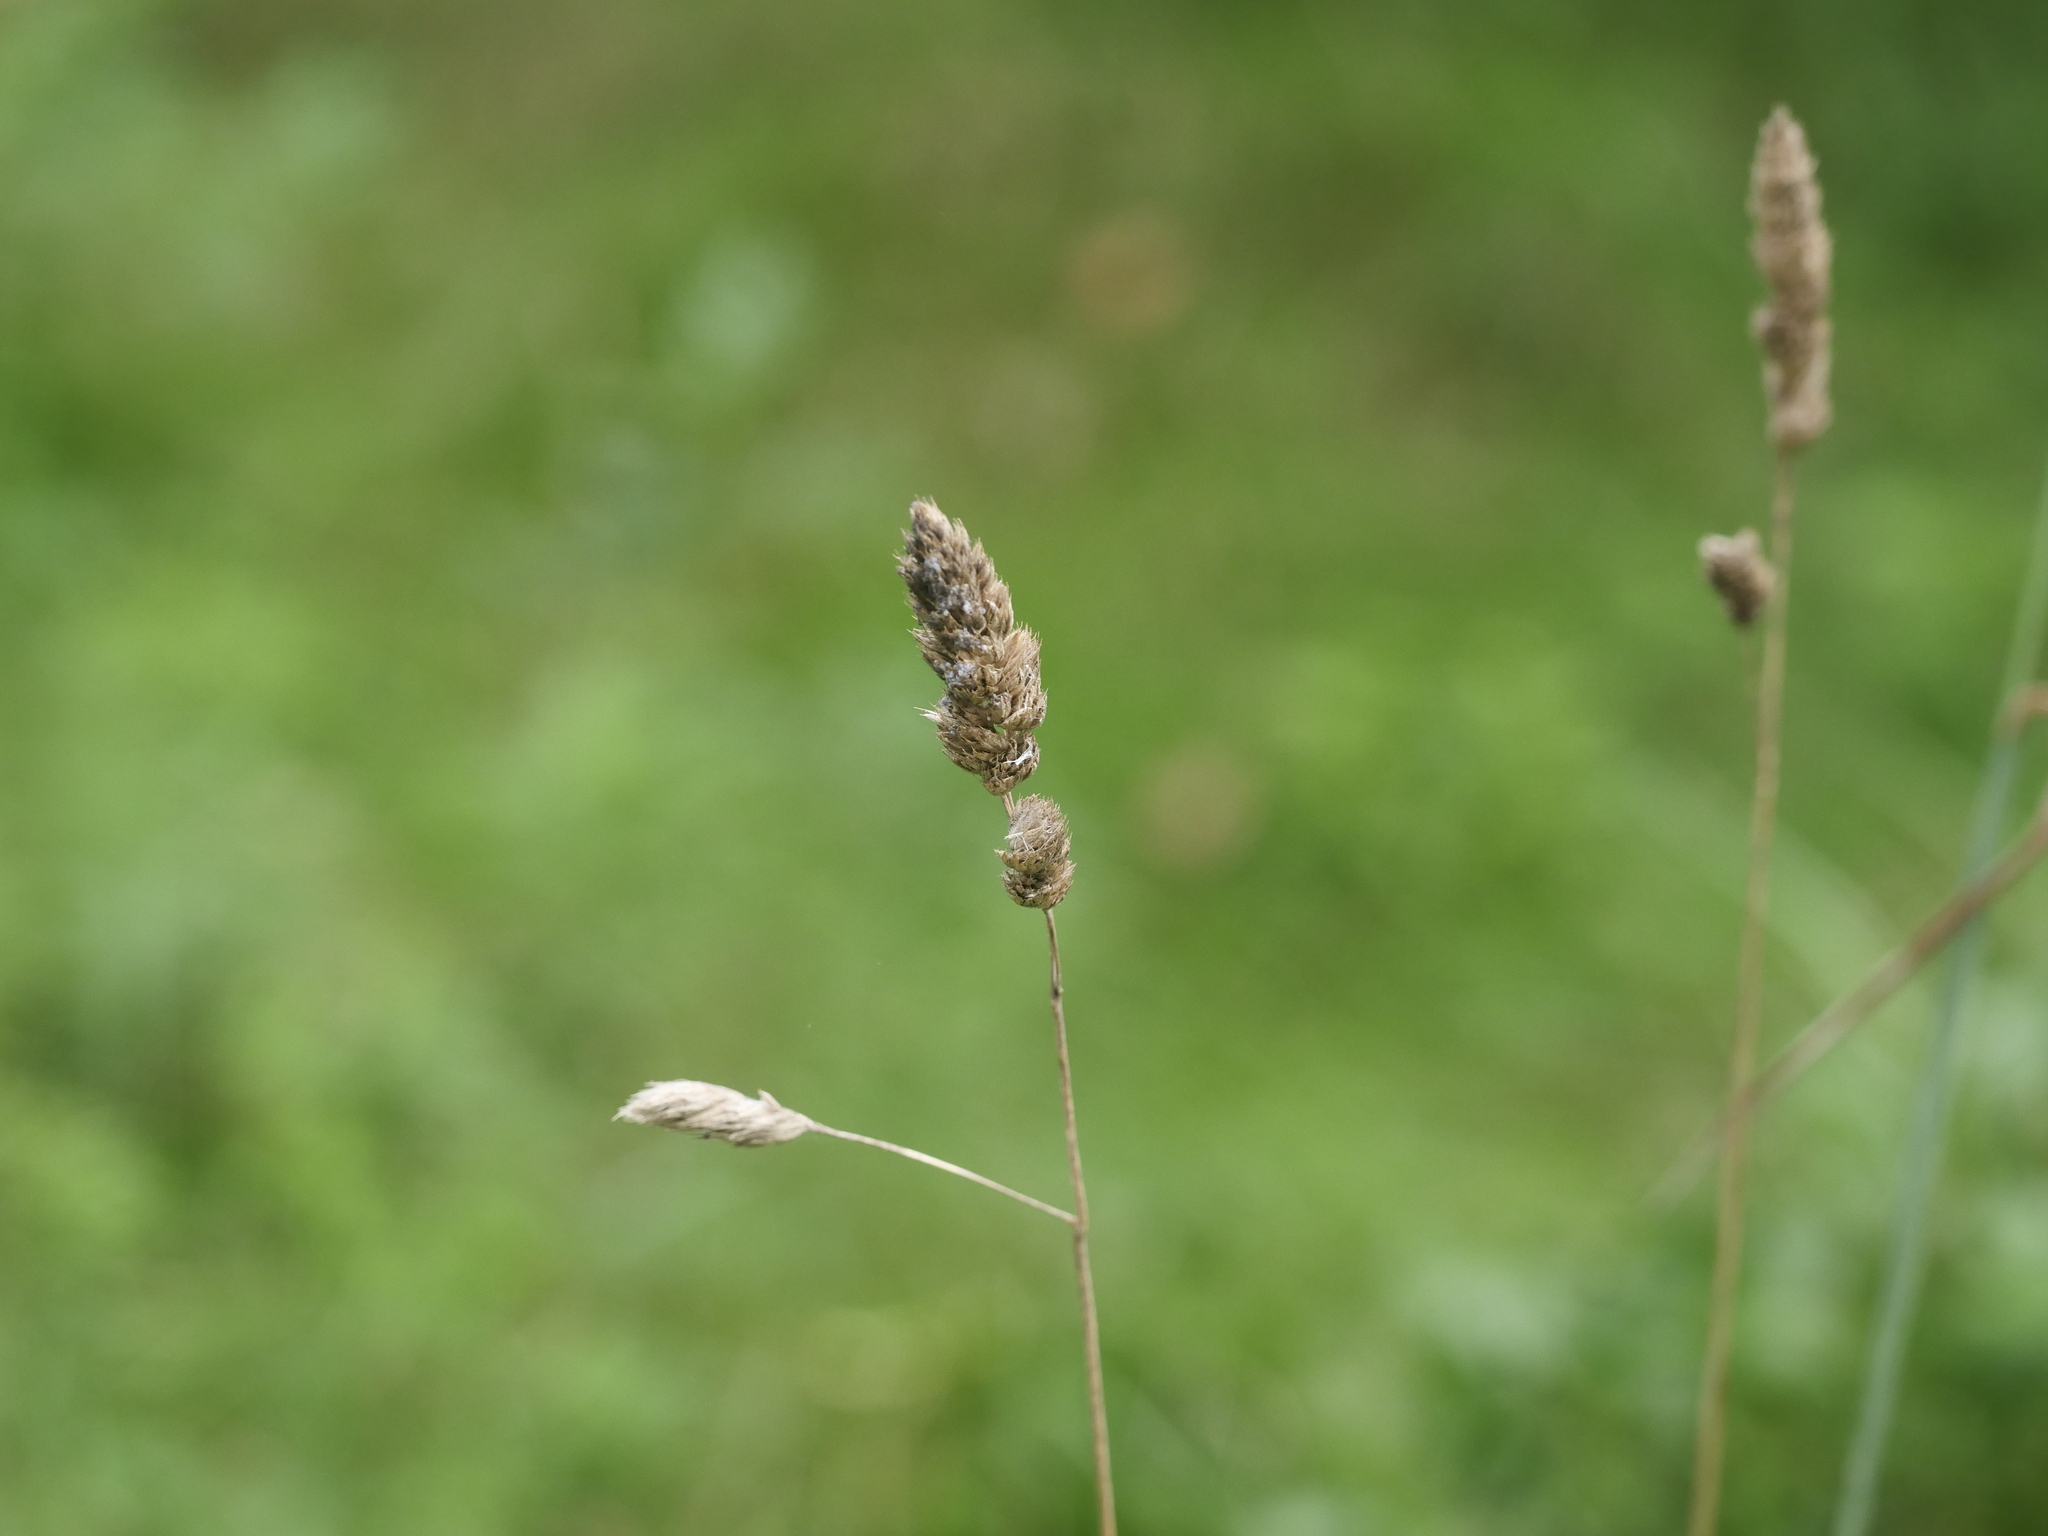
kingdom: Plantae
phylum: Tracheophyta
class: Liliopsida
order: Poales
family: Poaceae
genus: Dactylis
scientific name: Dactylis glomerata
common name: Orchardgrass
